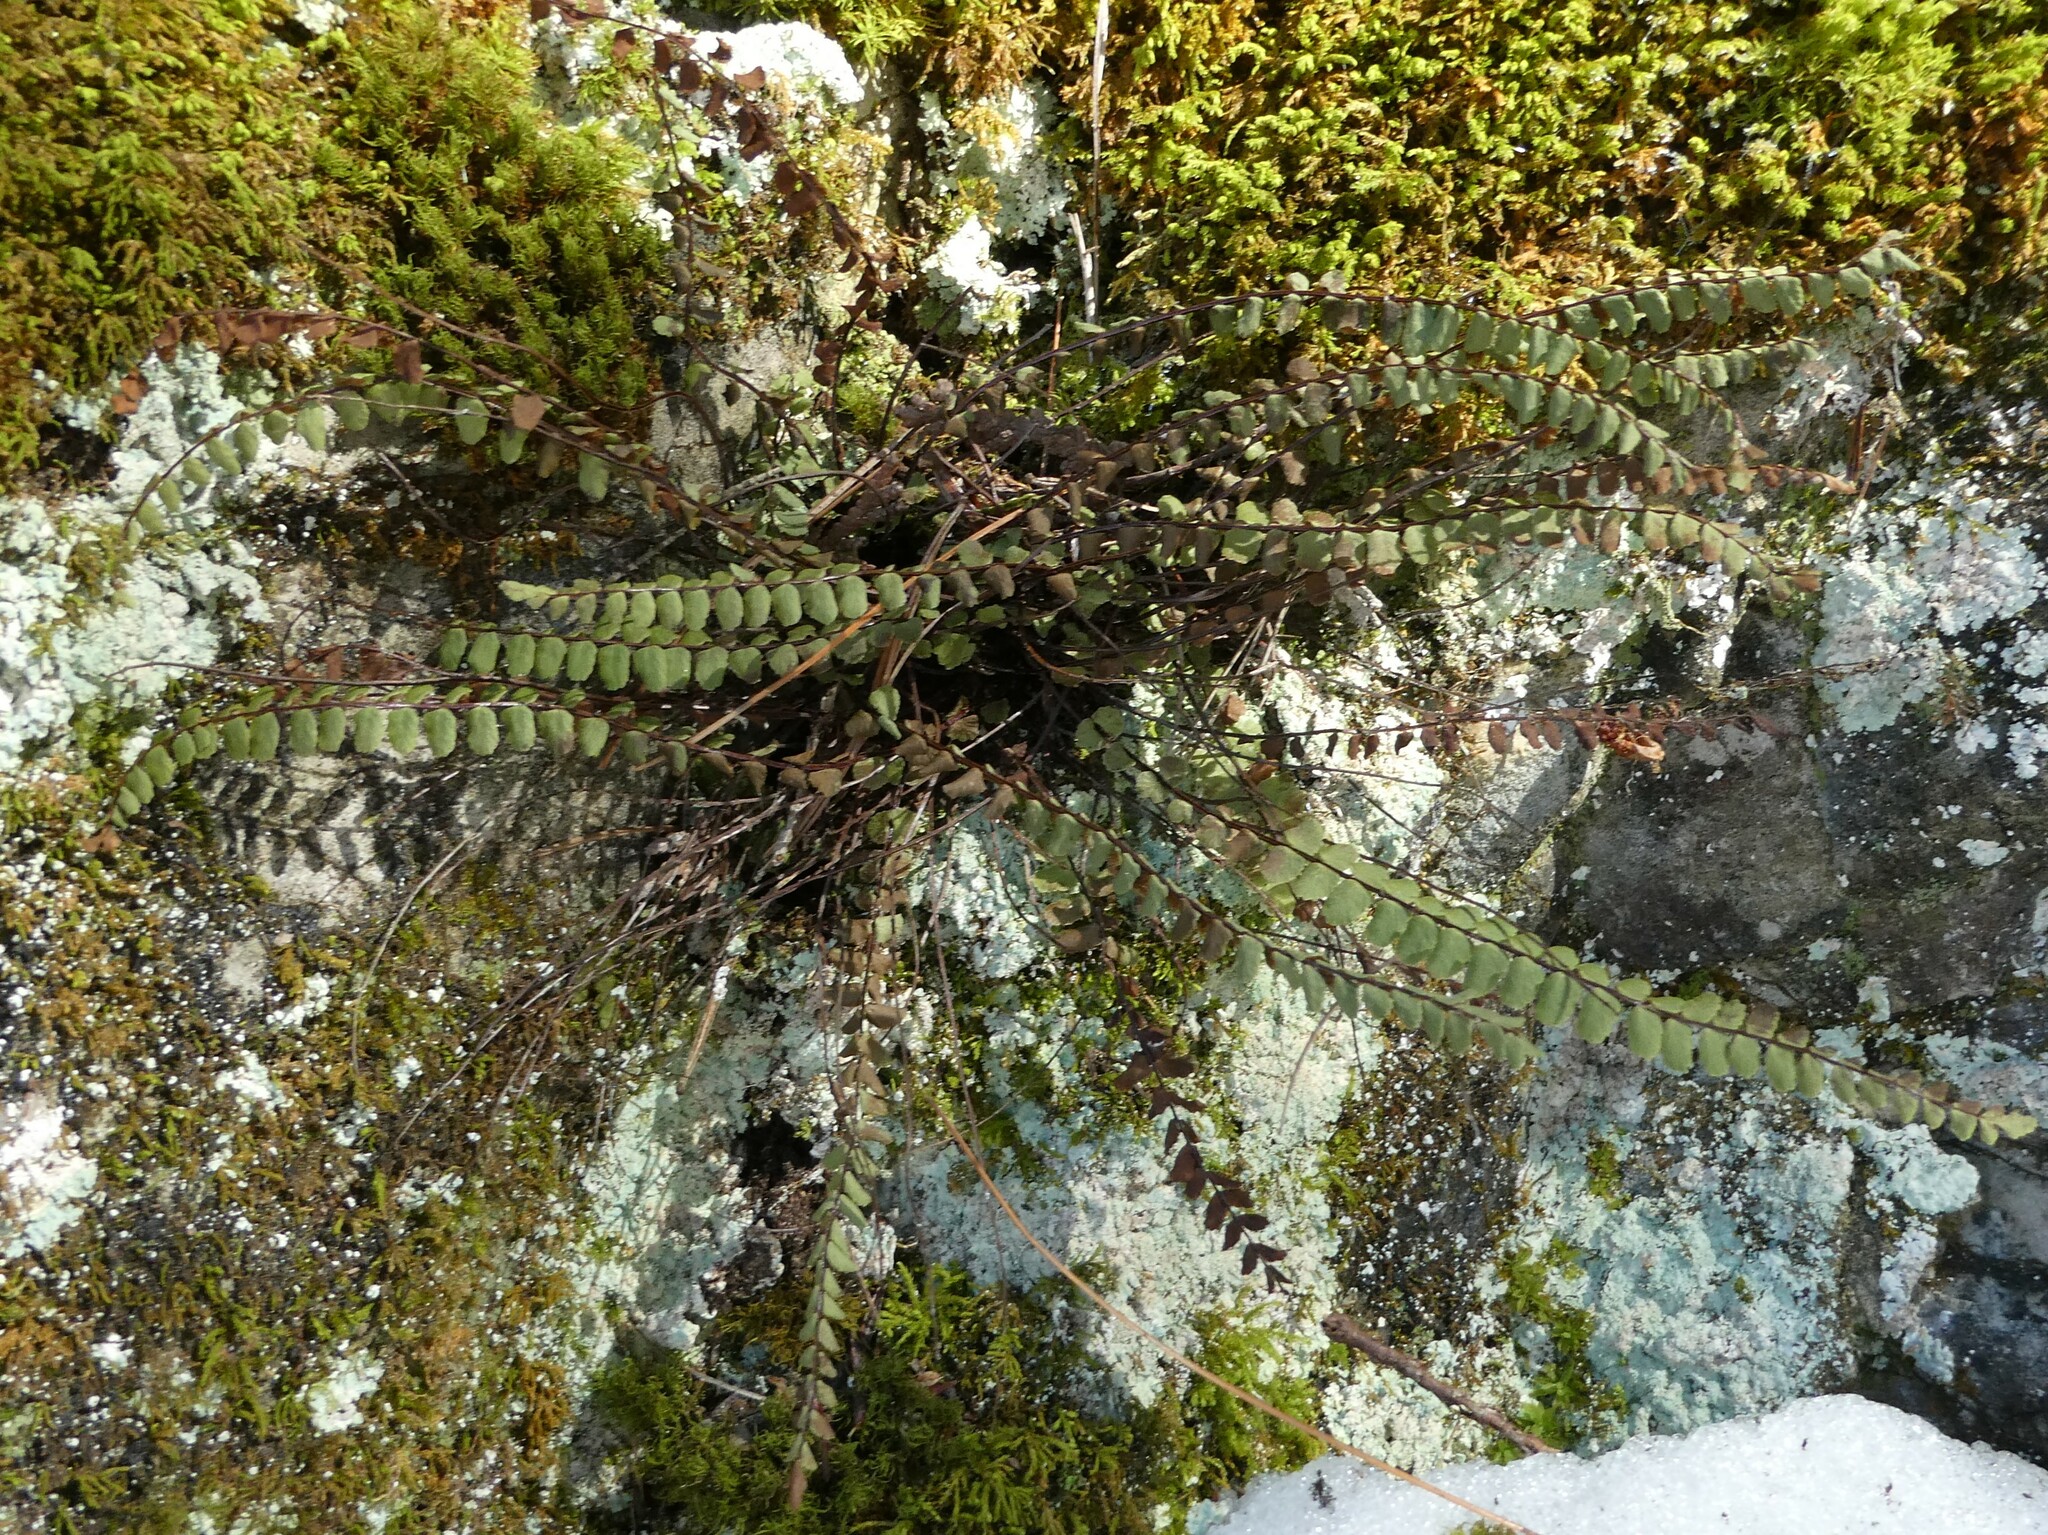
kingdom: Plantae
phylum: Tracheophyta
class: Polypodiopsida
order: Polypodiales
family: Aspleniaceae
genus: Asplenium
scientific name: Asplenium trichomanes
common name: Maidenhair spleenwort
